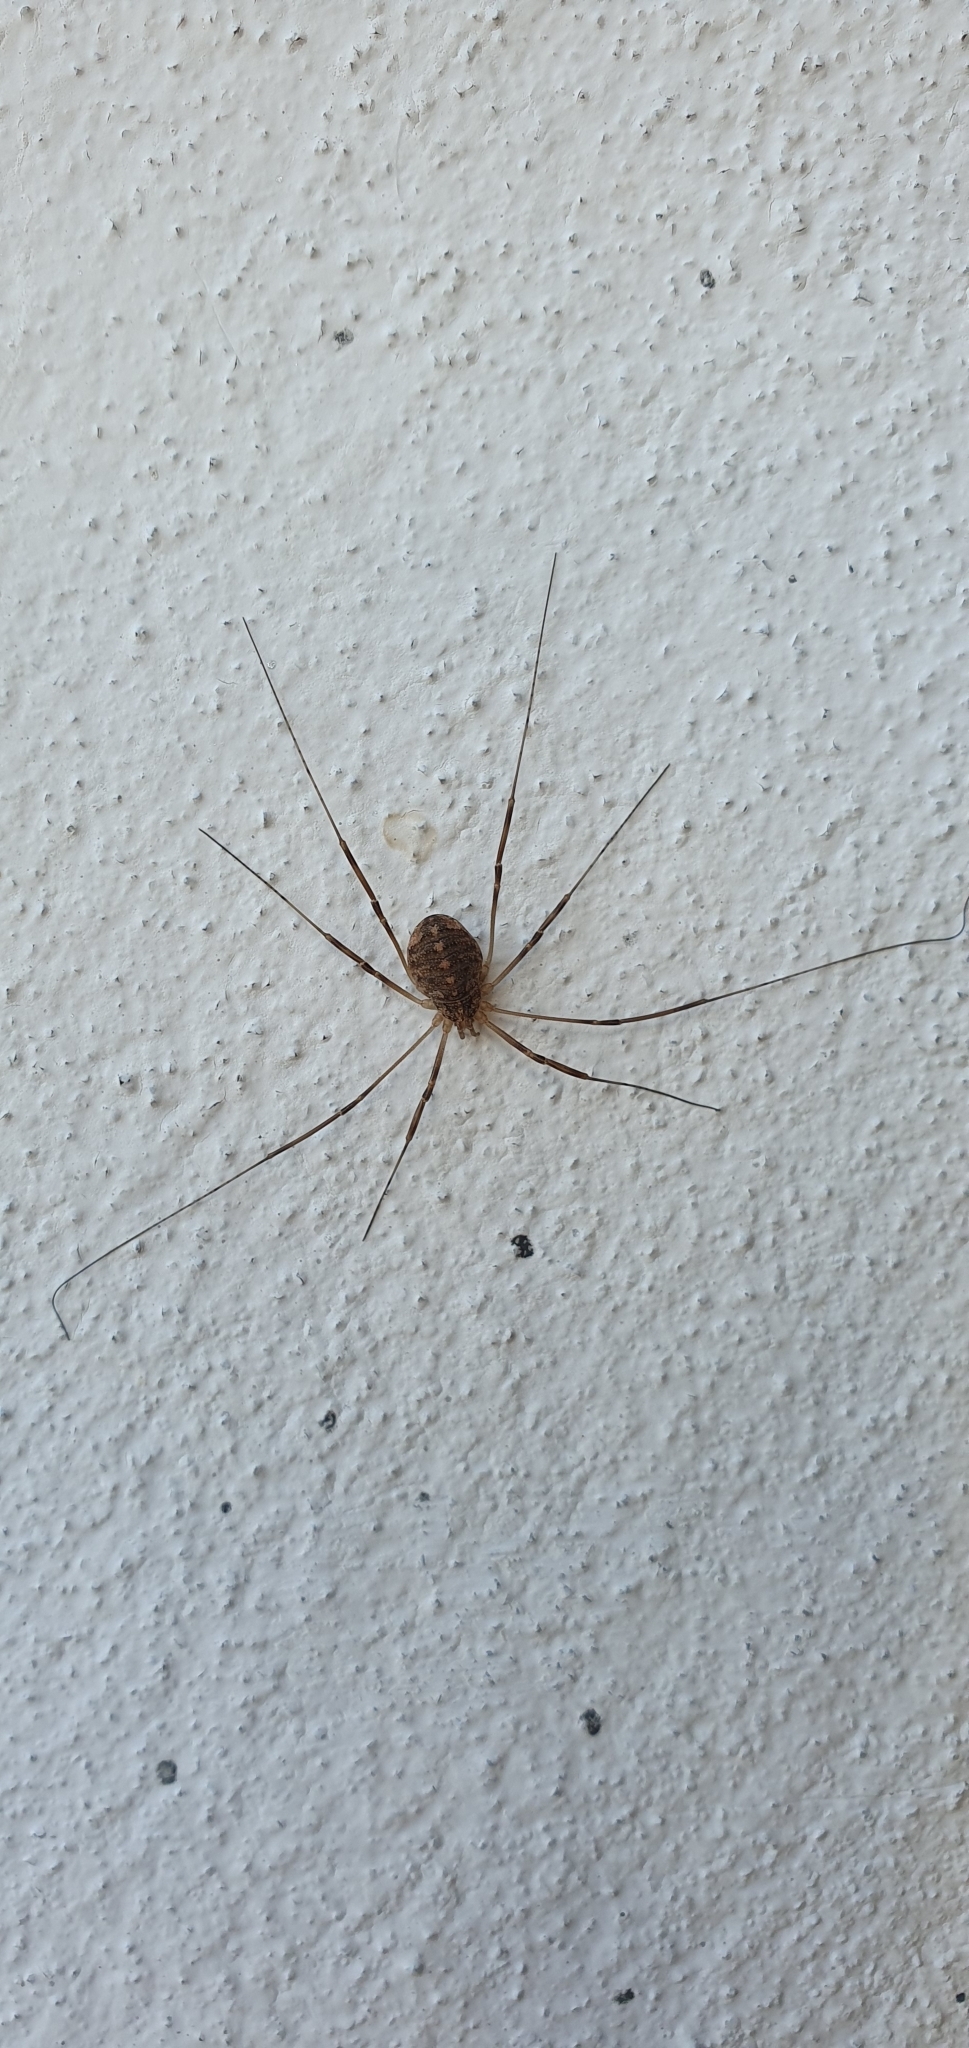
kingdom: Animalia
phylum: Arthropoda
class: Arachnida
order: Opiliones
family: Phalangiidae
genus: Opilio
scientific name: Opilio saxatilis
